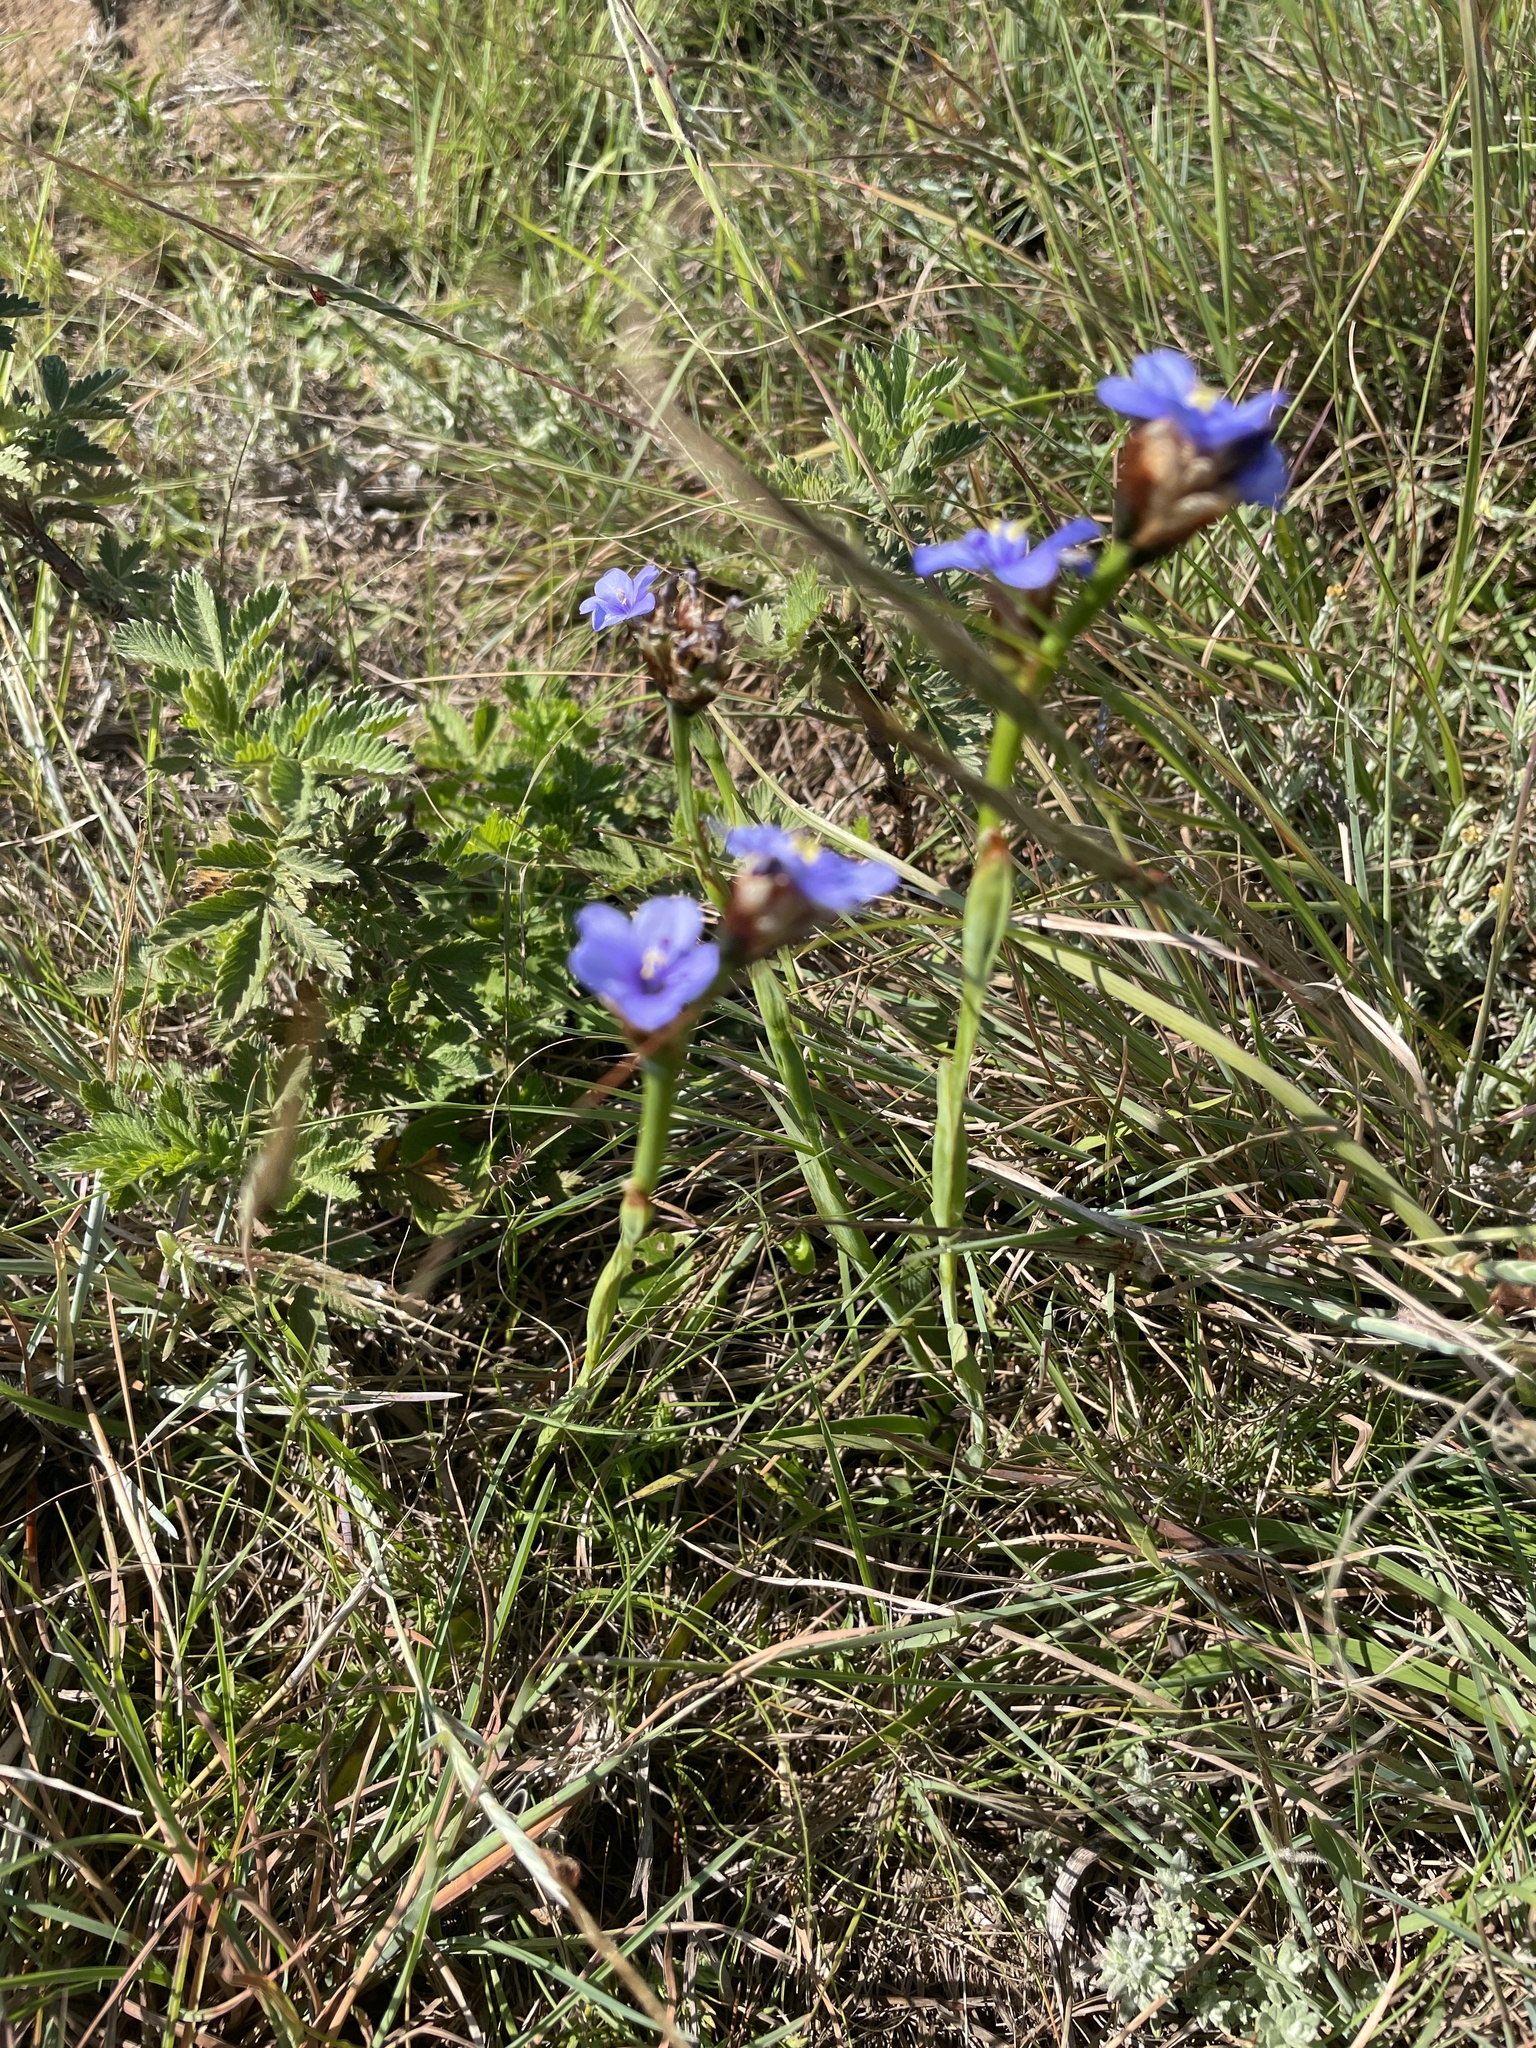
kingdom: Plantae
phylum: Tracheophyta
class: Liliopsida
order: Asparagales
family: Iridaceae
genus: Aristea
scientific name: Aristea torulosa
